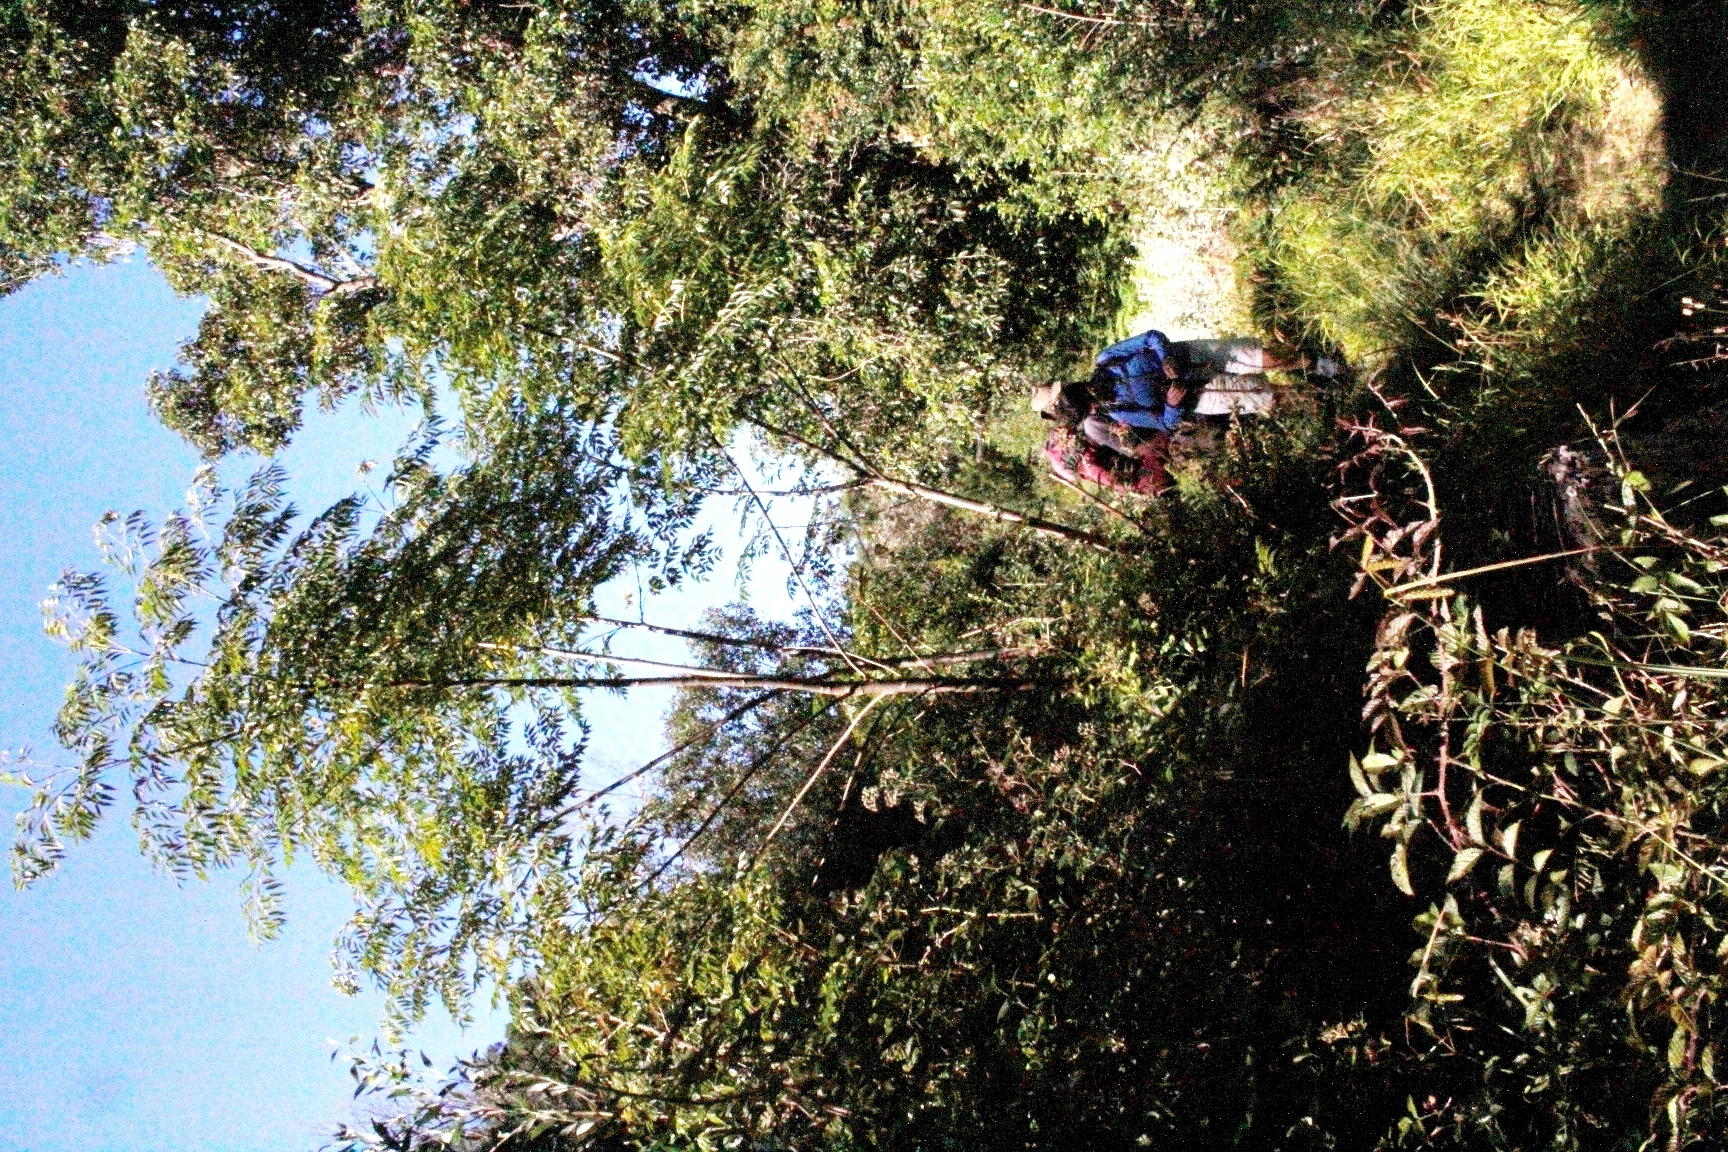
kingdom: Plantae
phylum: Tracheophyta
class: Magnoliopsida
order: Sapindales
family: Meliaceae
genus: Melia
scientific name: Melia azedarach
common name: Chinaberrytree
